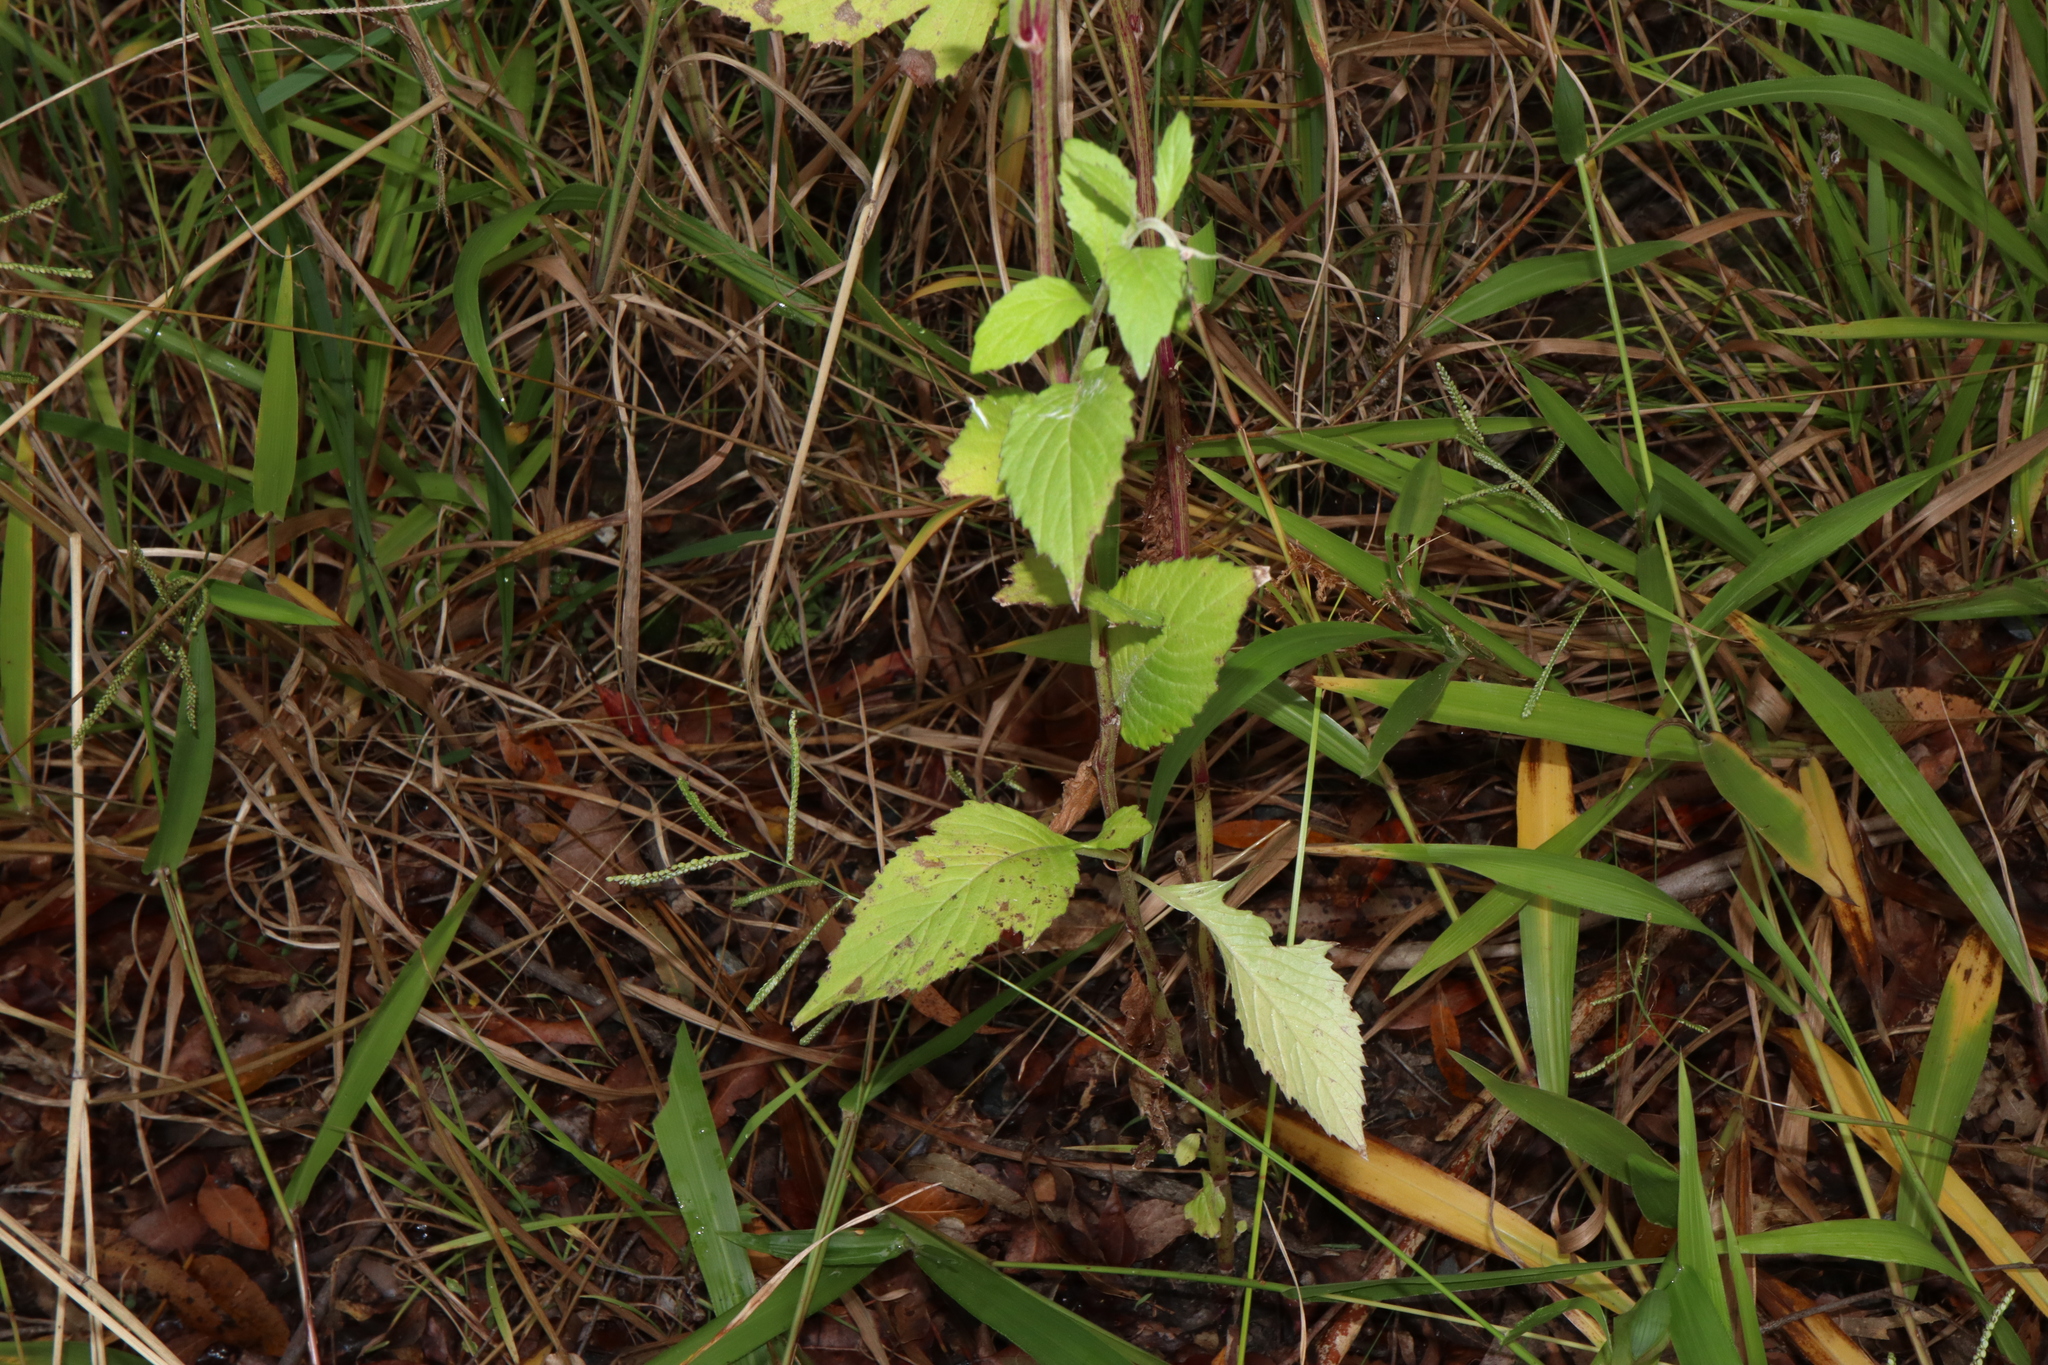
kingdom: Plantae
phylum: Tracheophyta
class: Magnoliopsida
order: Asterales
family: Asteraceae
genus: Crassocephalum
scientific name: Crassocephalum crepidioides
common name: Redflower ragleaf
